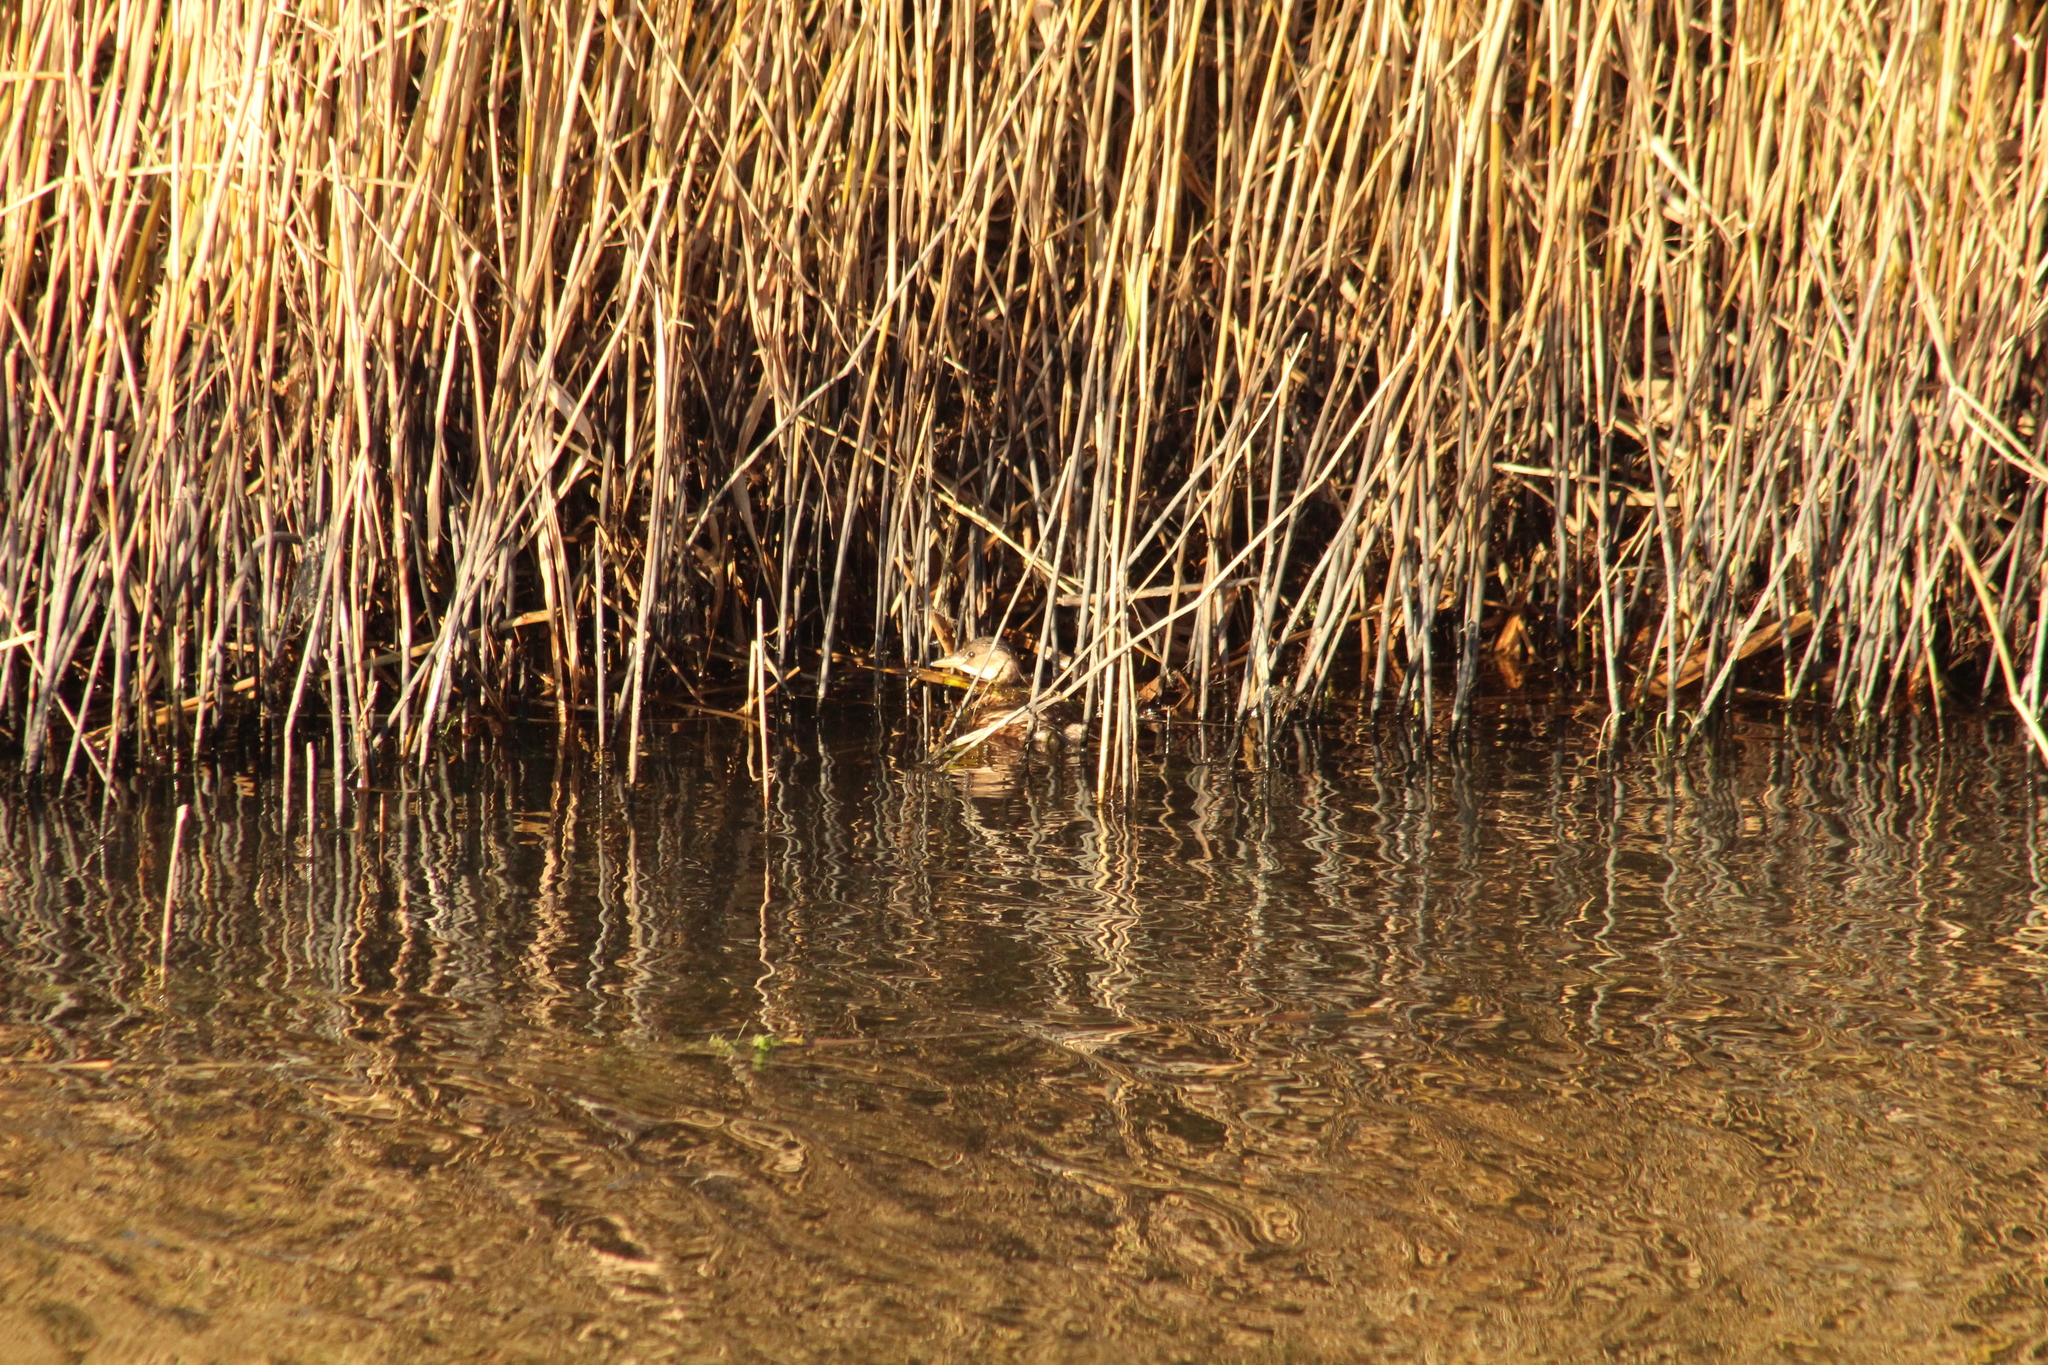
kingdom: Animalia
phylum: Chordata
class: Aves
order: Podicipediformes
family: Podicipedidae
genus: Tachybaptus
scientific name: Tachybaptus ruficollis
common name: Little grebe
